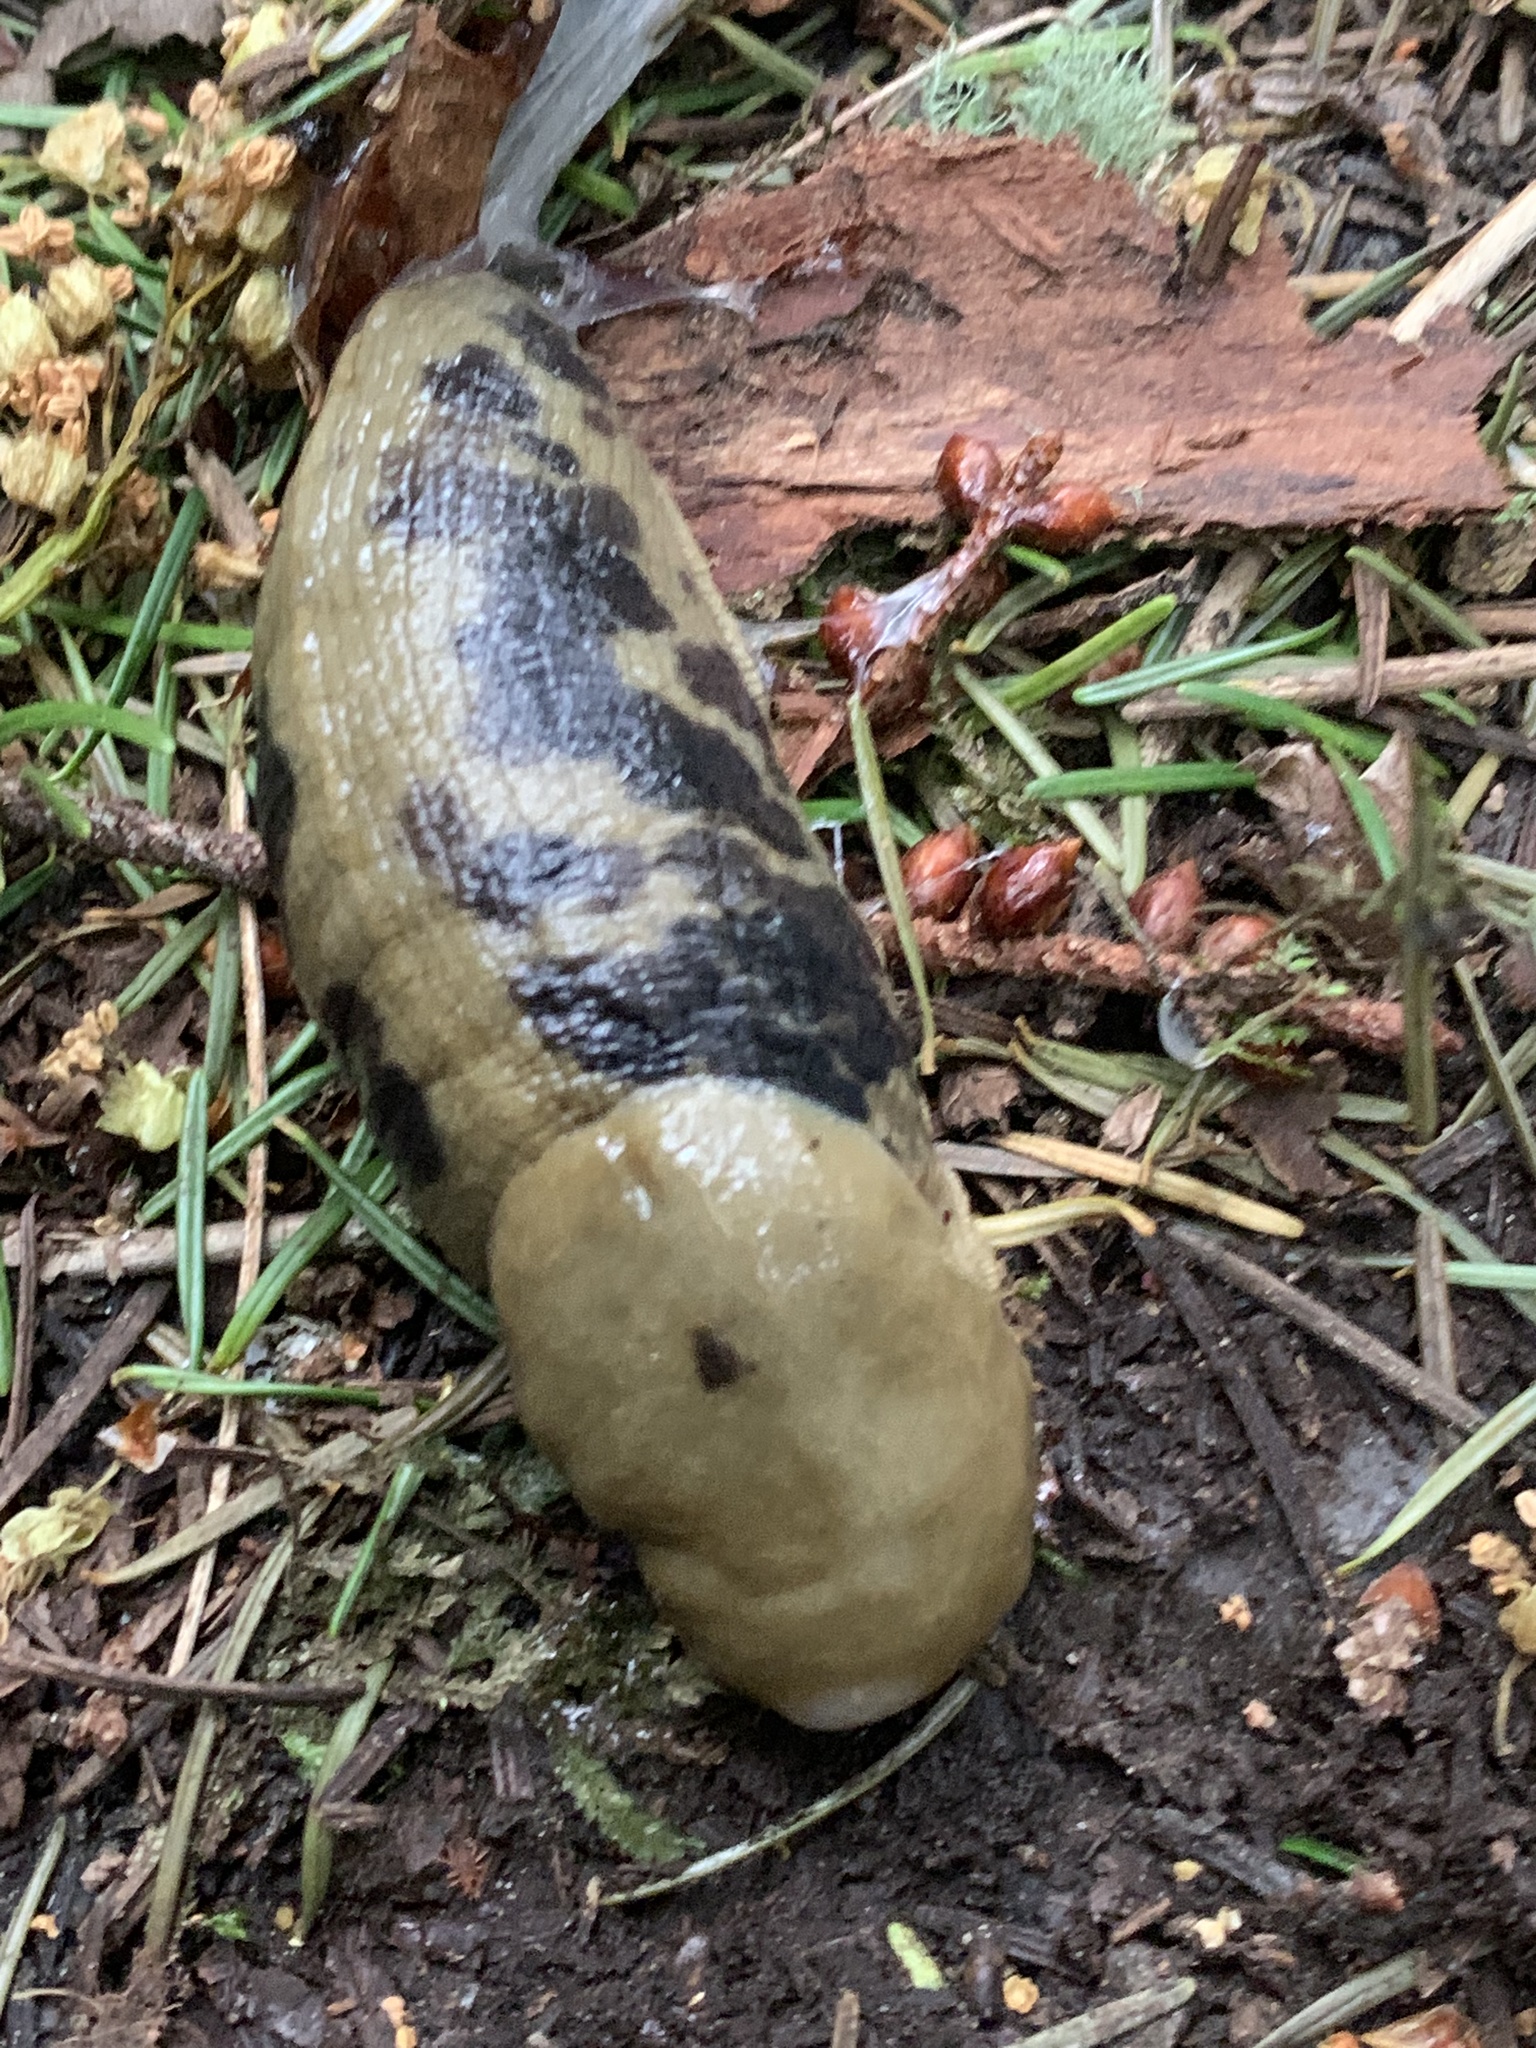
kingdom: Animalia
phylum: Mollusca
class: Gastropoda
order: Stylommatophora
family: Ariolimacidae
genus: Ariolimax
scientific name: Ariolimax columbianus
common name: Pacific banana slug
